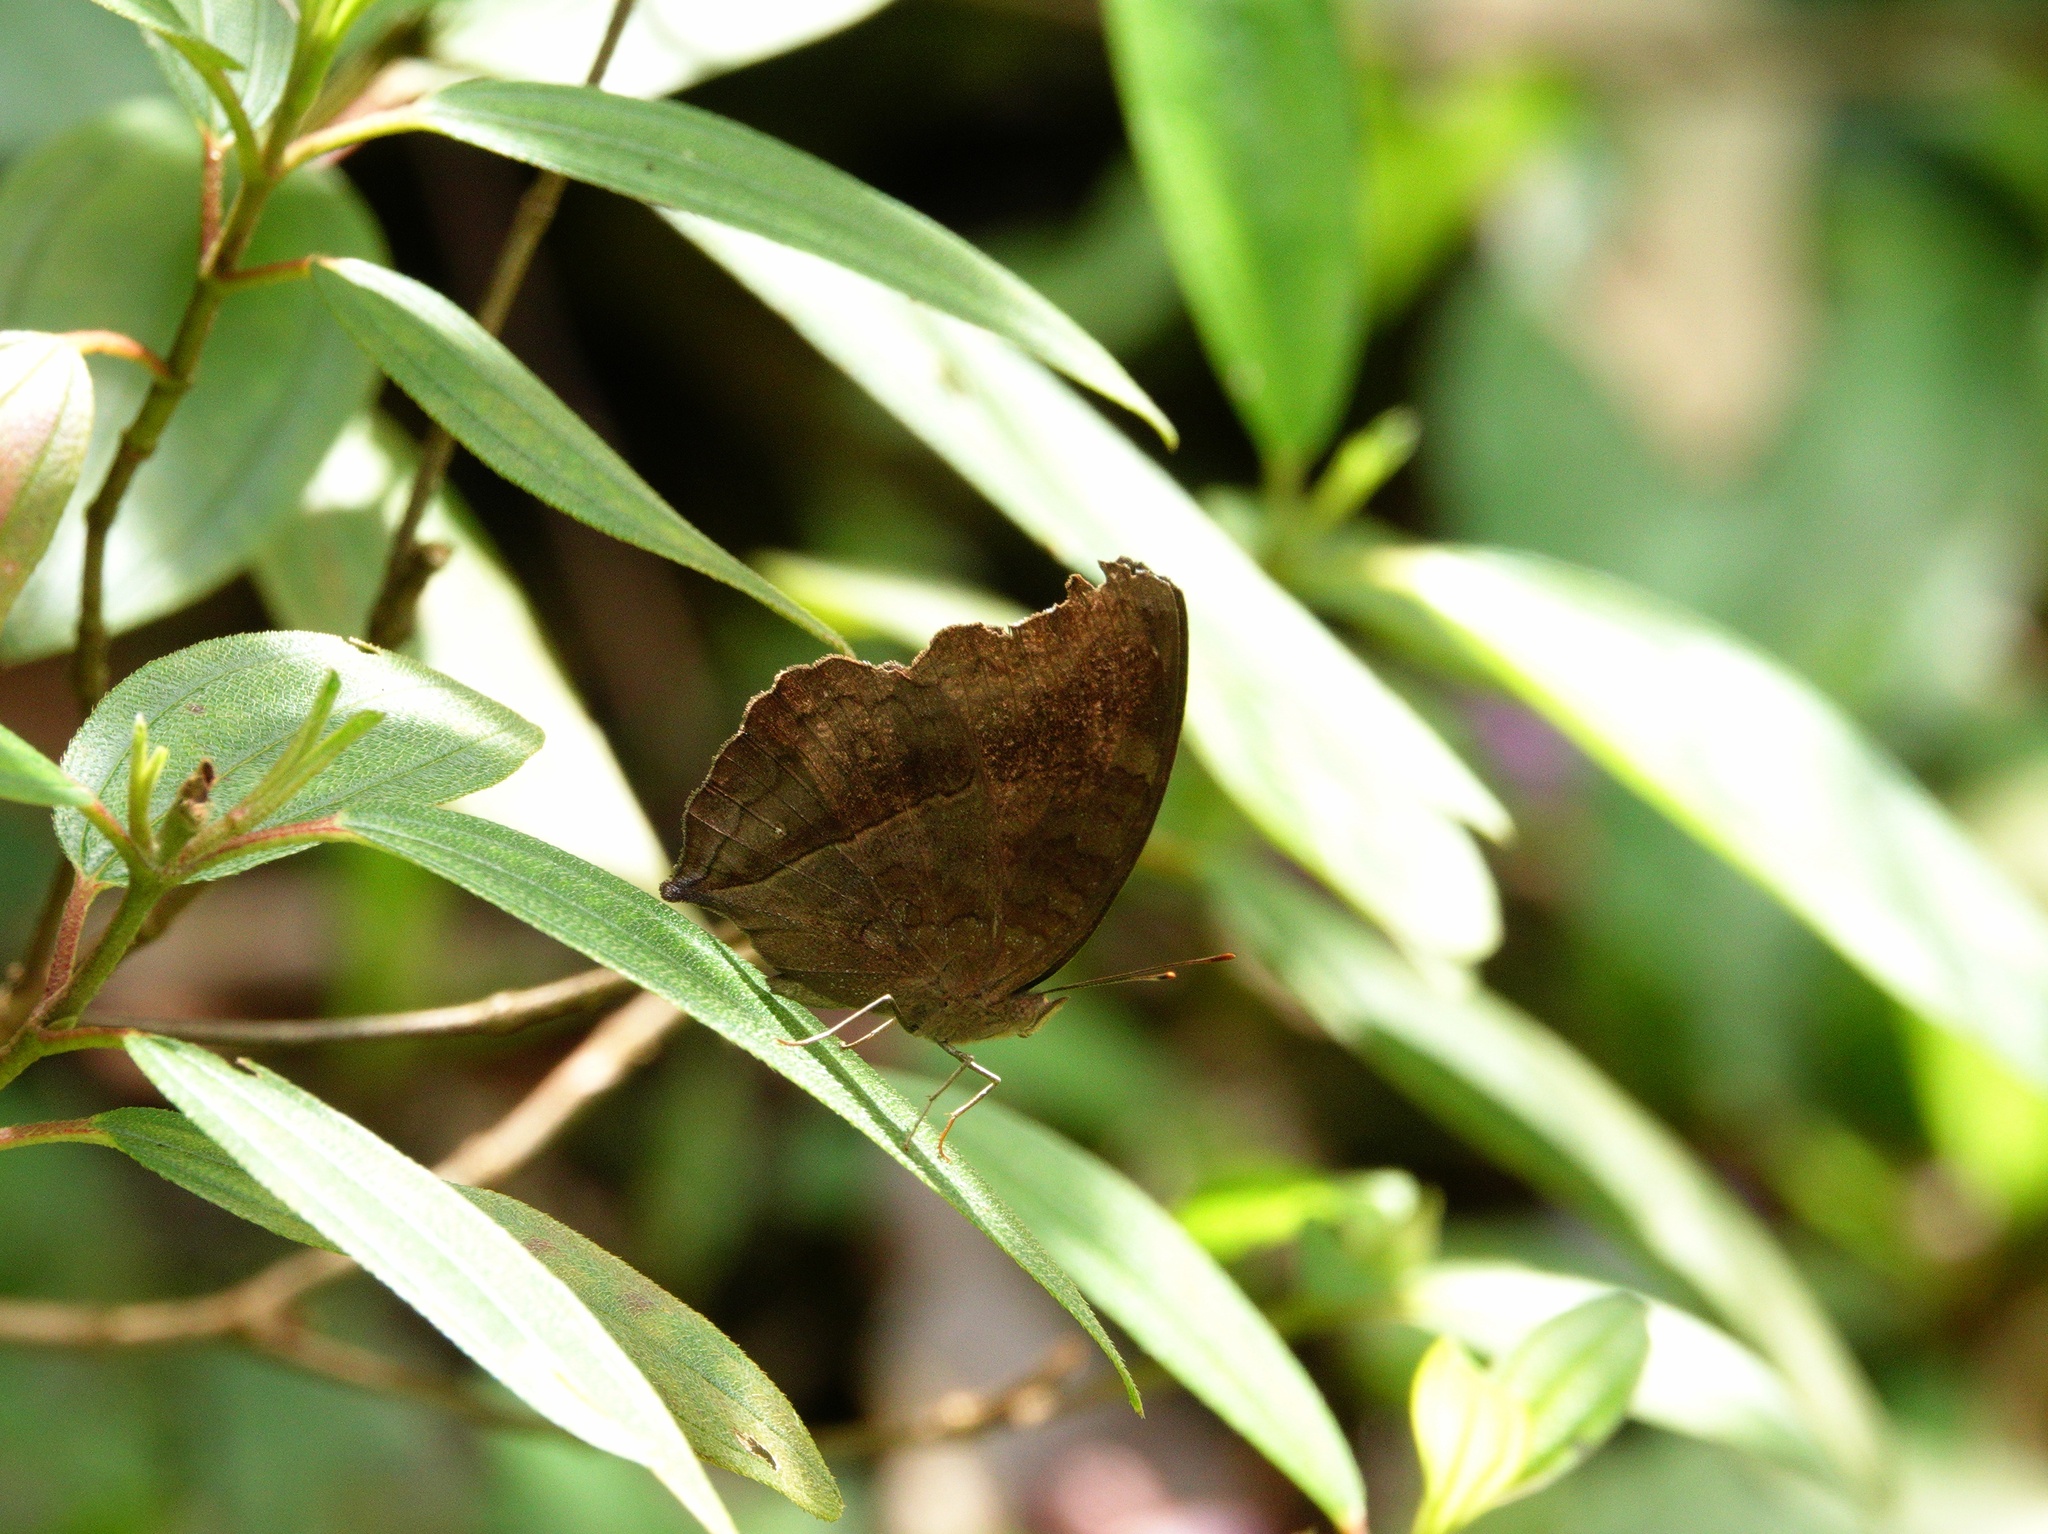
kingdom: Animalia
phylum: Arthropoda
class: Insecta
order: Lepidoptera
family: Nymphalidae
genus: Junonia
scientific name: Junonia iphita
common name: Chocolate pansy
